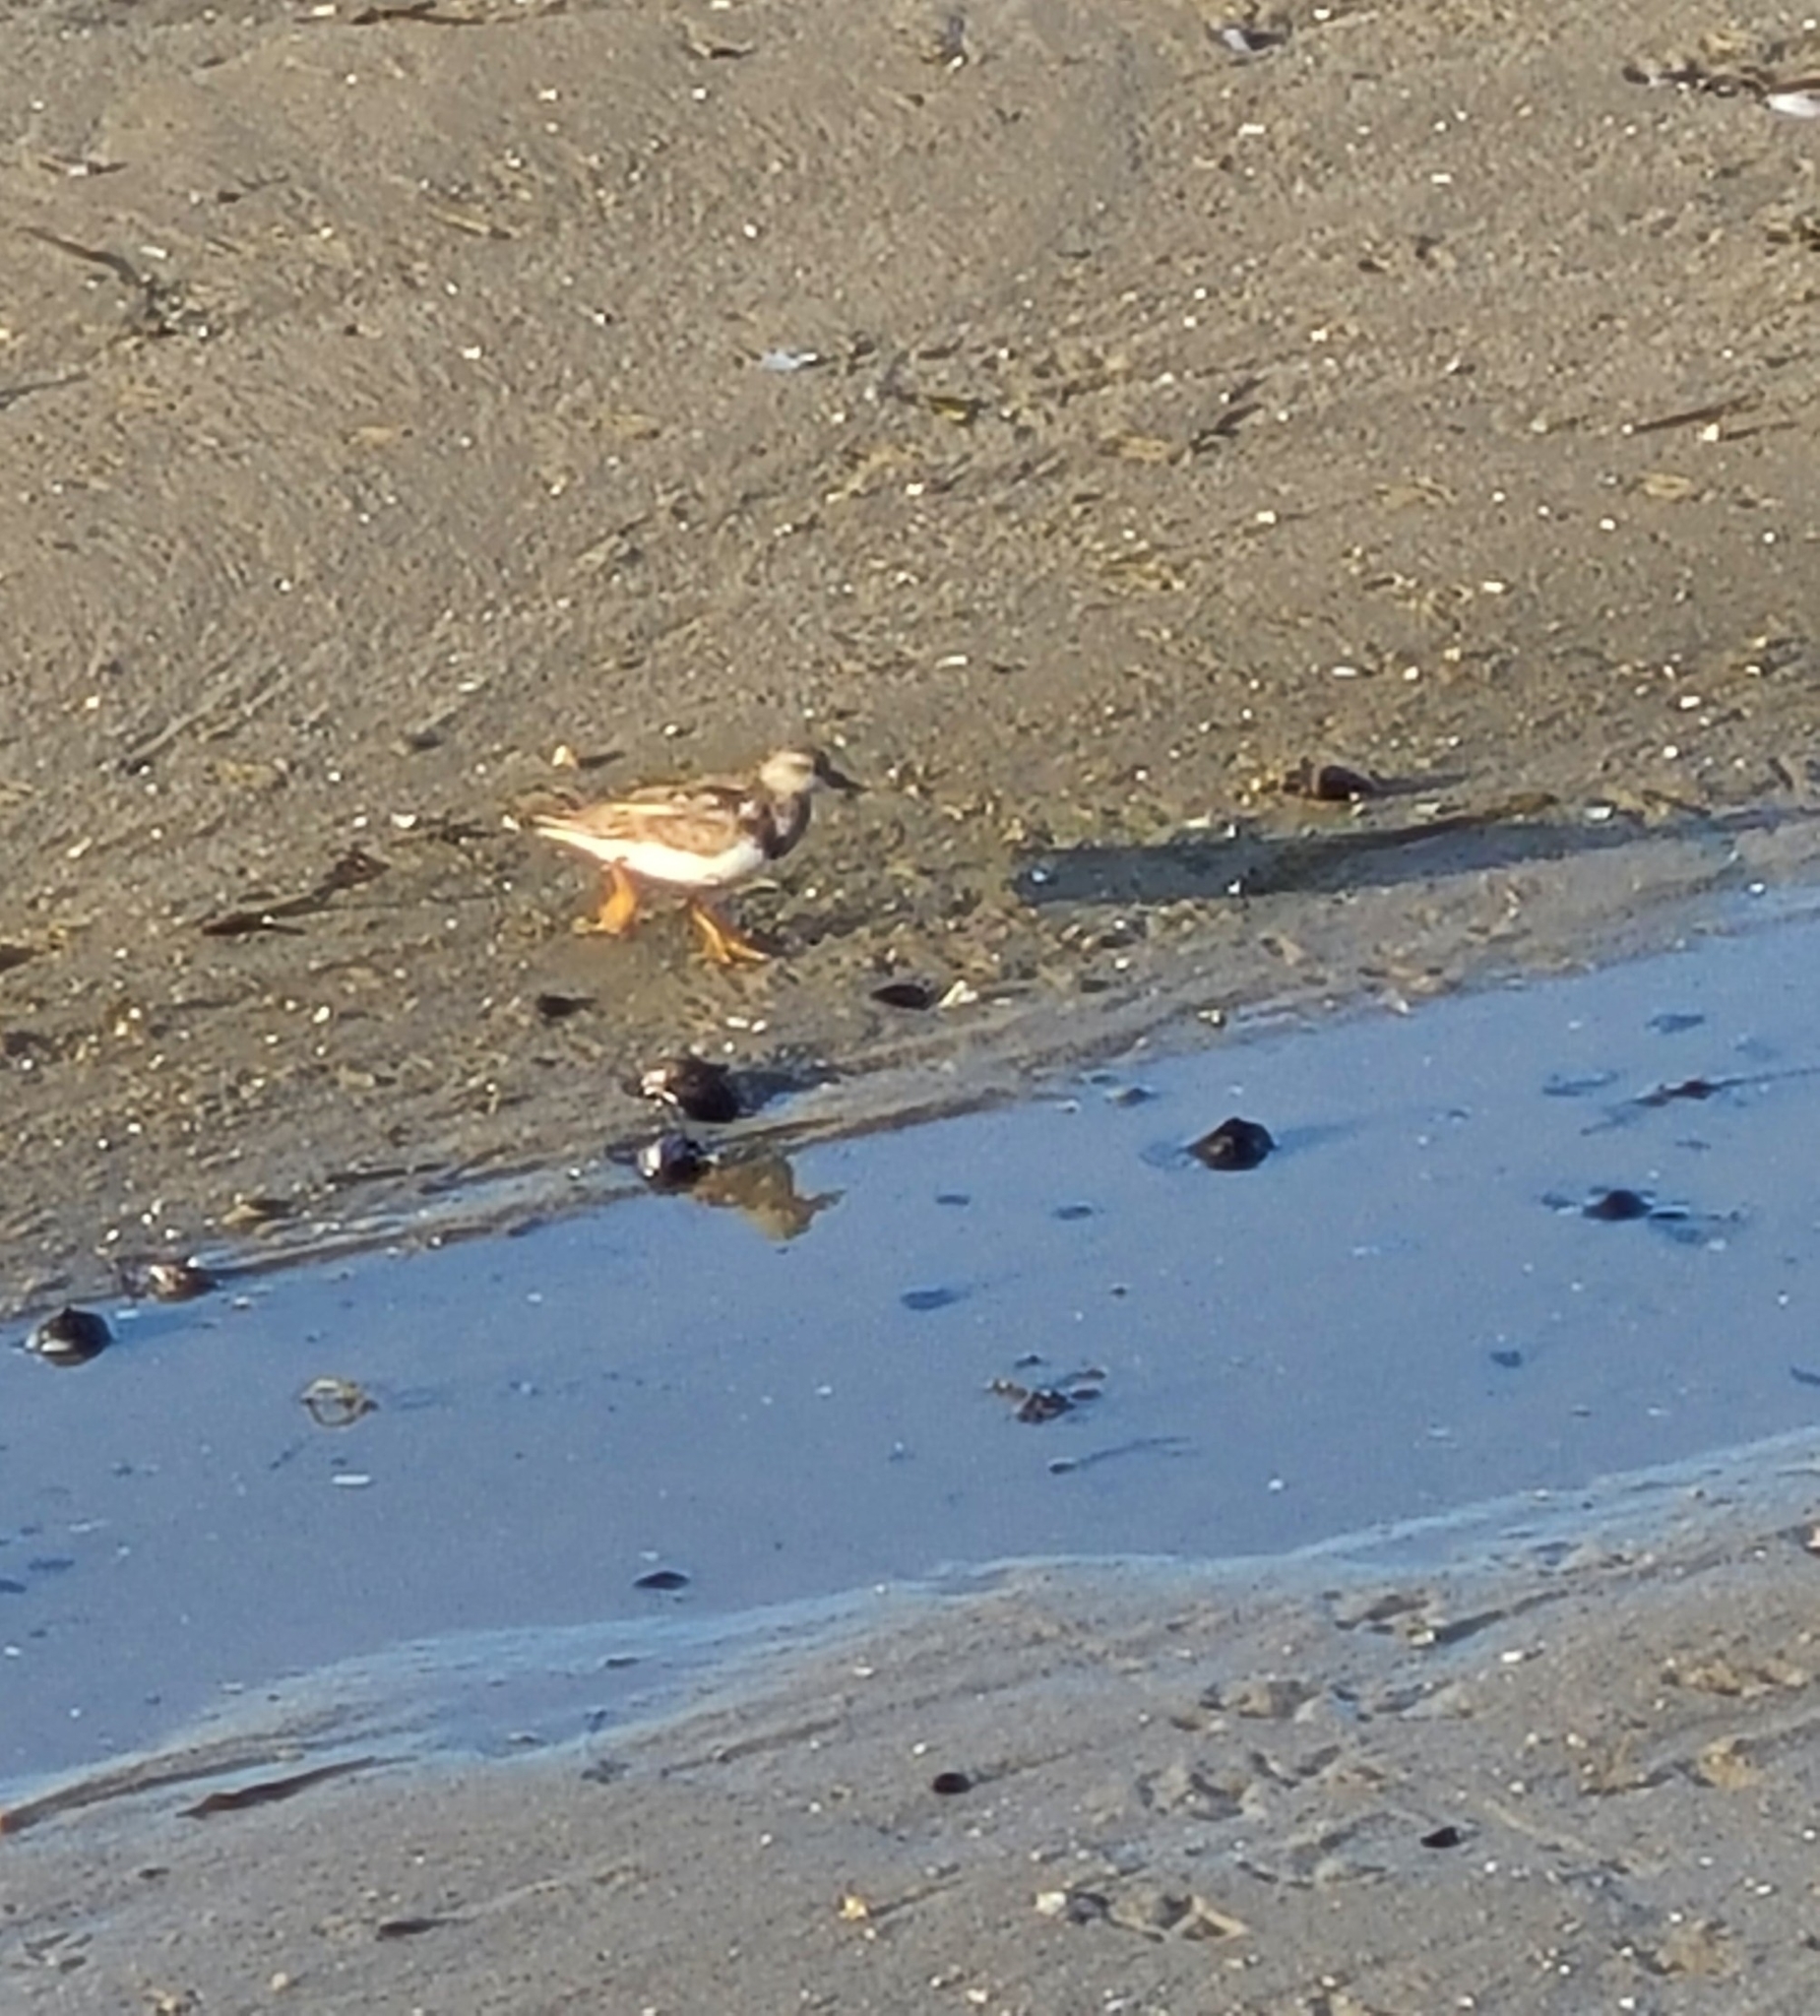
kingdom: Animalia
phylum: Chordata
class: Aves
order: Charadriiformes
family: Scolopacidae
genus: Arenaria
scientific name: Arenaria interpres
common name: Ruddy turnstone
